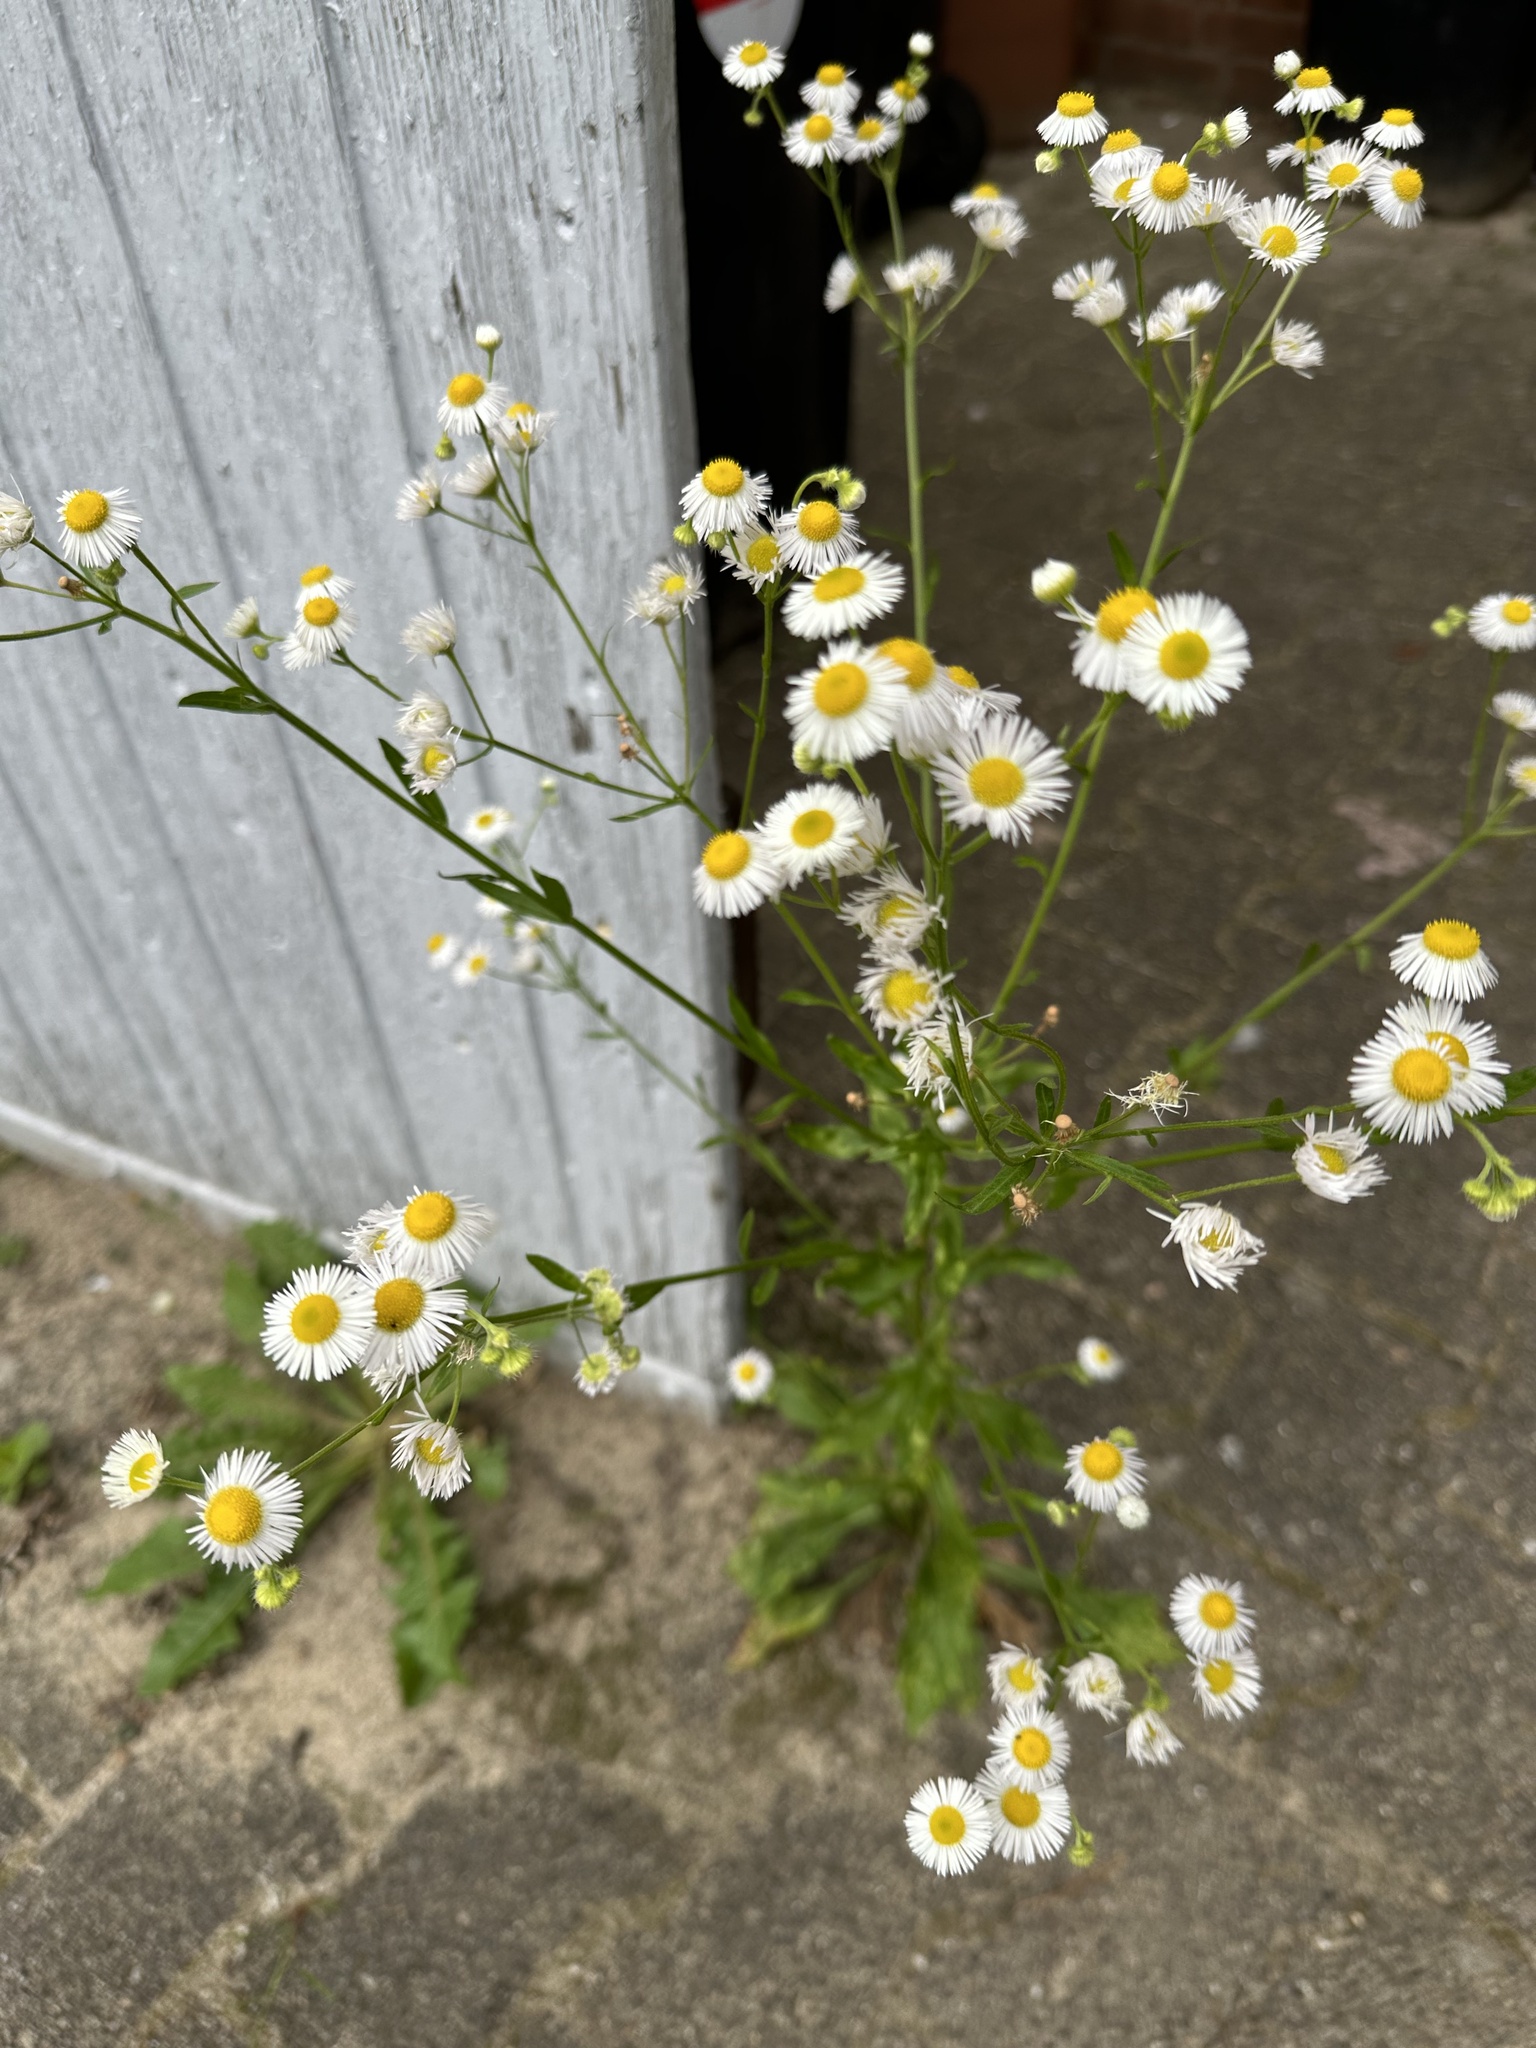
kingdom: Plantae
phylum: Tracheophyta
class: Magnoliopsida
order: Asterales
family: Asteraceae
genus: Erigeron
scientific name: Erigeron annuus
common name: Tall fleabane
